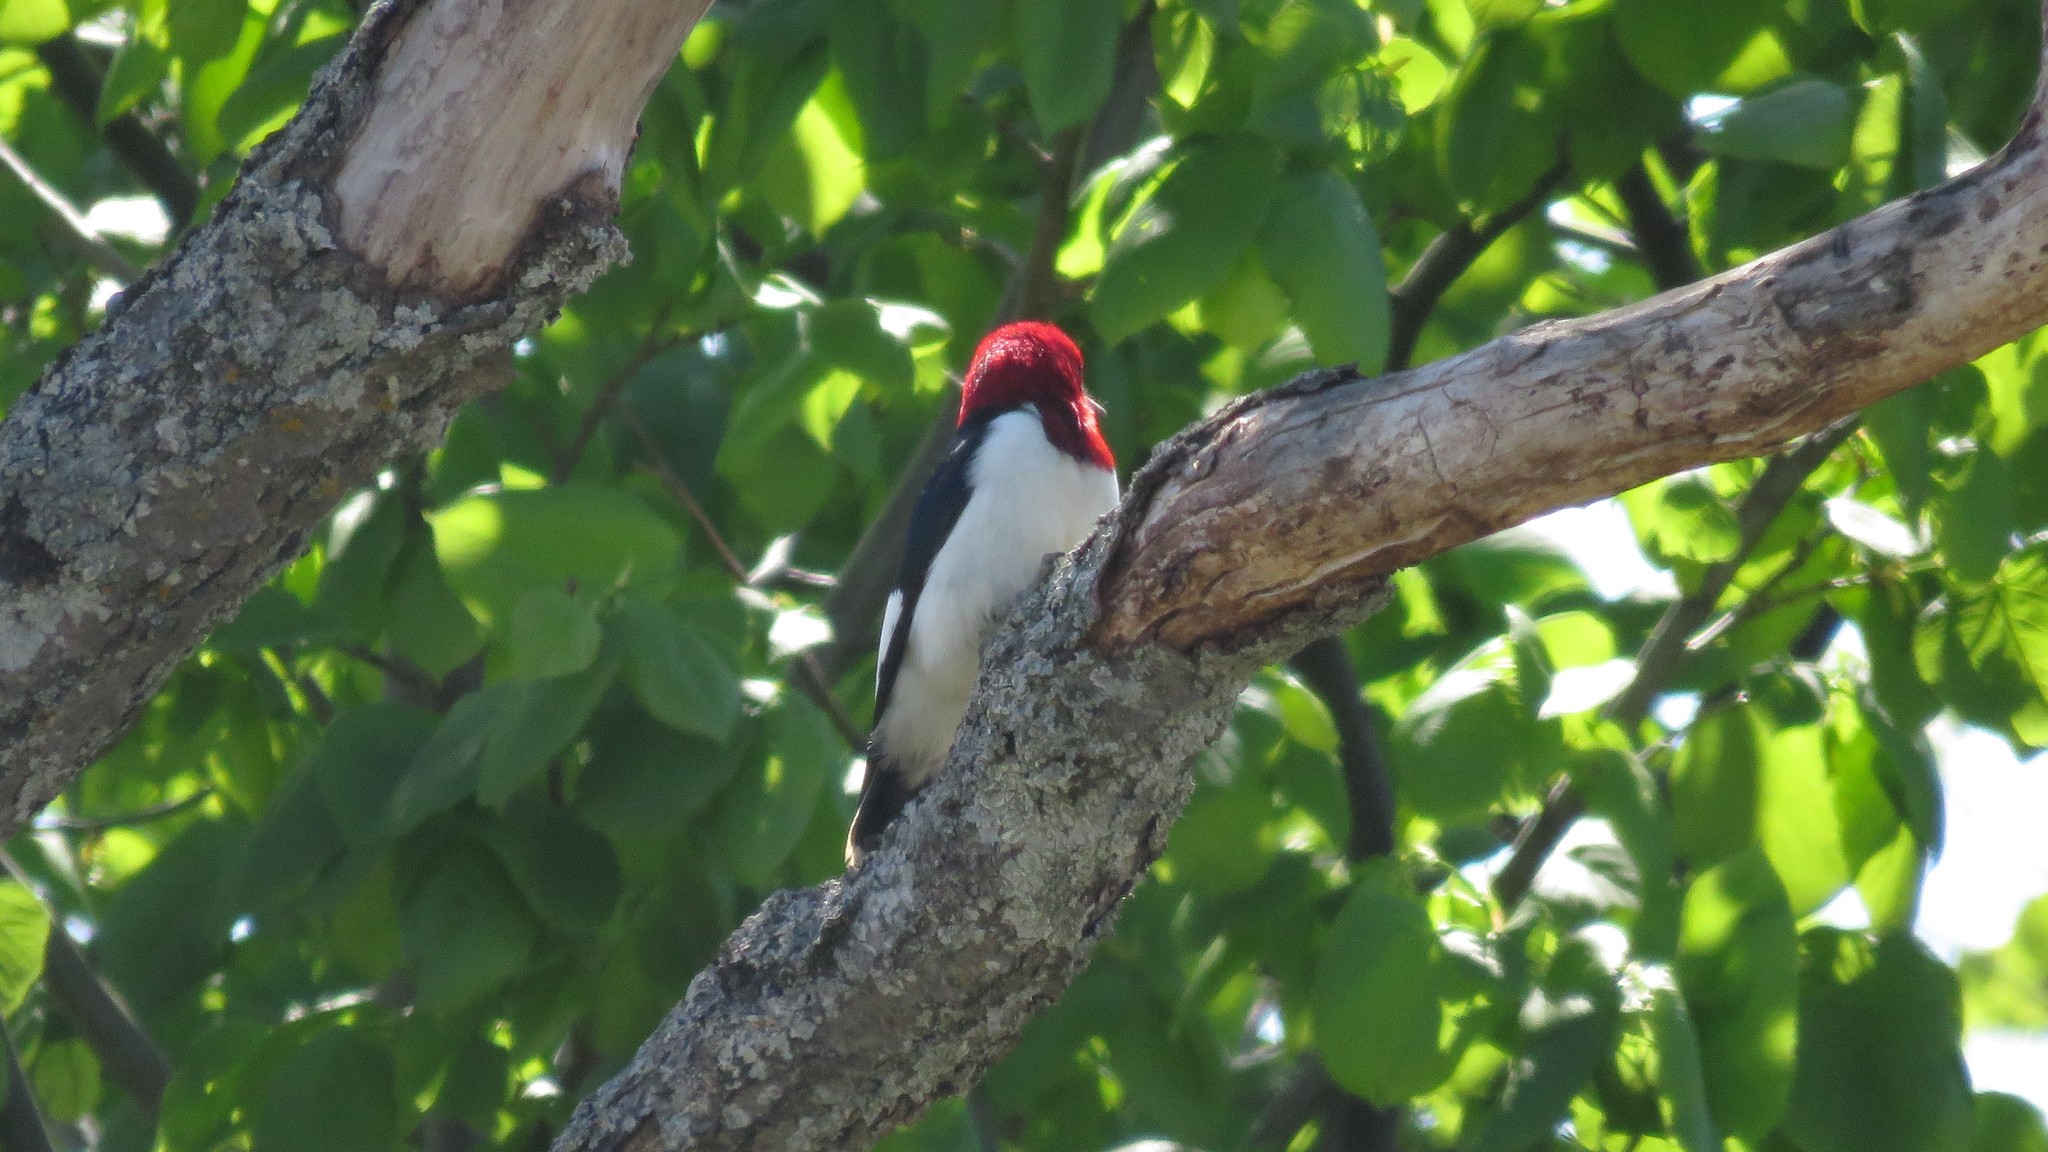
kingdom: Animalia
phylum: Chordata
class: Aves
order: Piciformes
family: Picidae
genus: Melanerpes
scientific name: Melanerpes erythrocephalus
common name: Red-headed woodpecker
